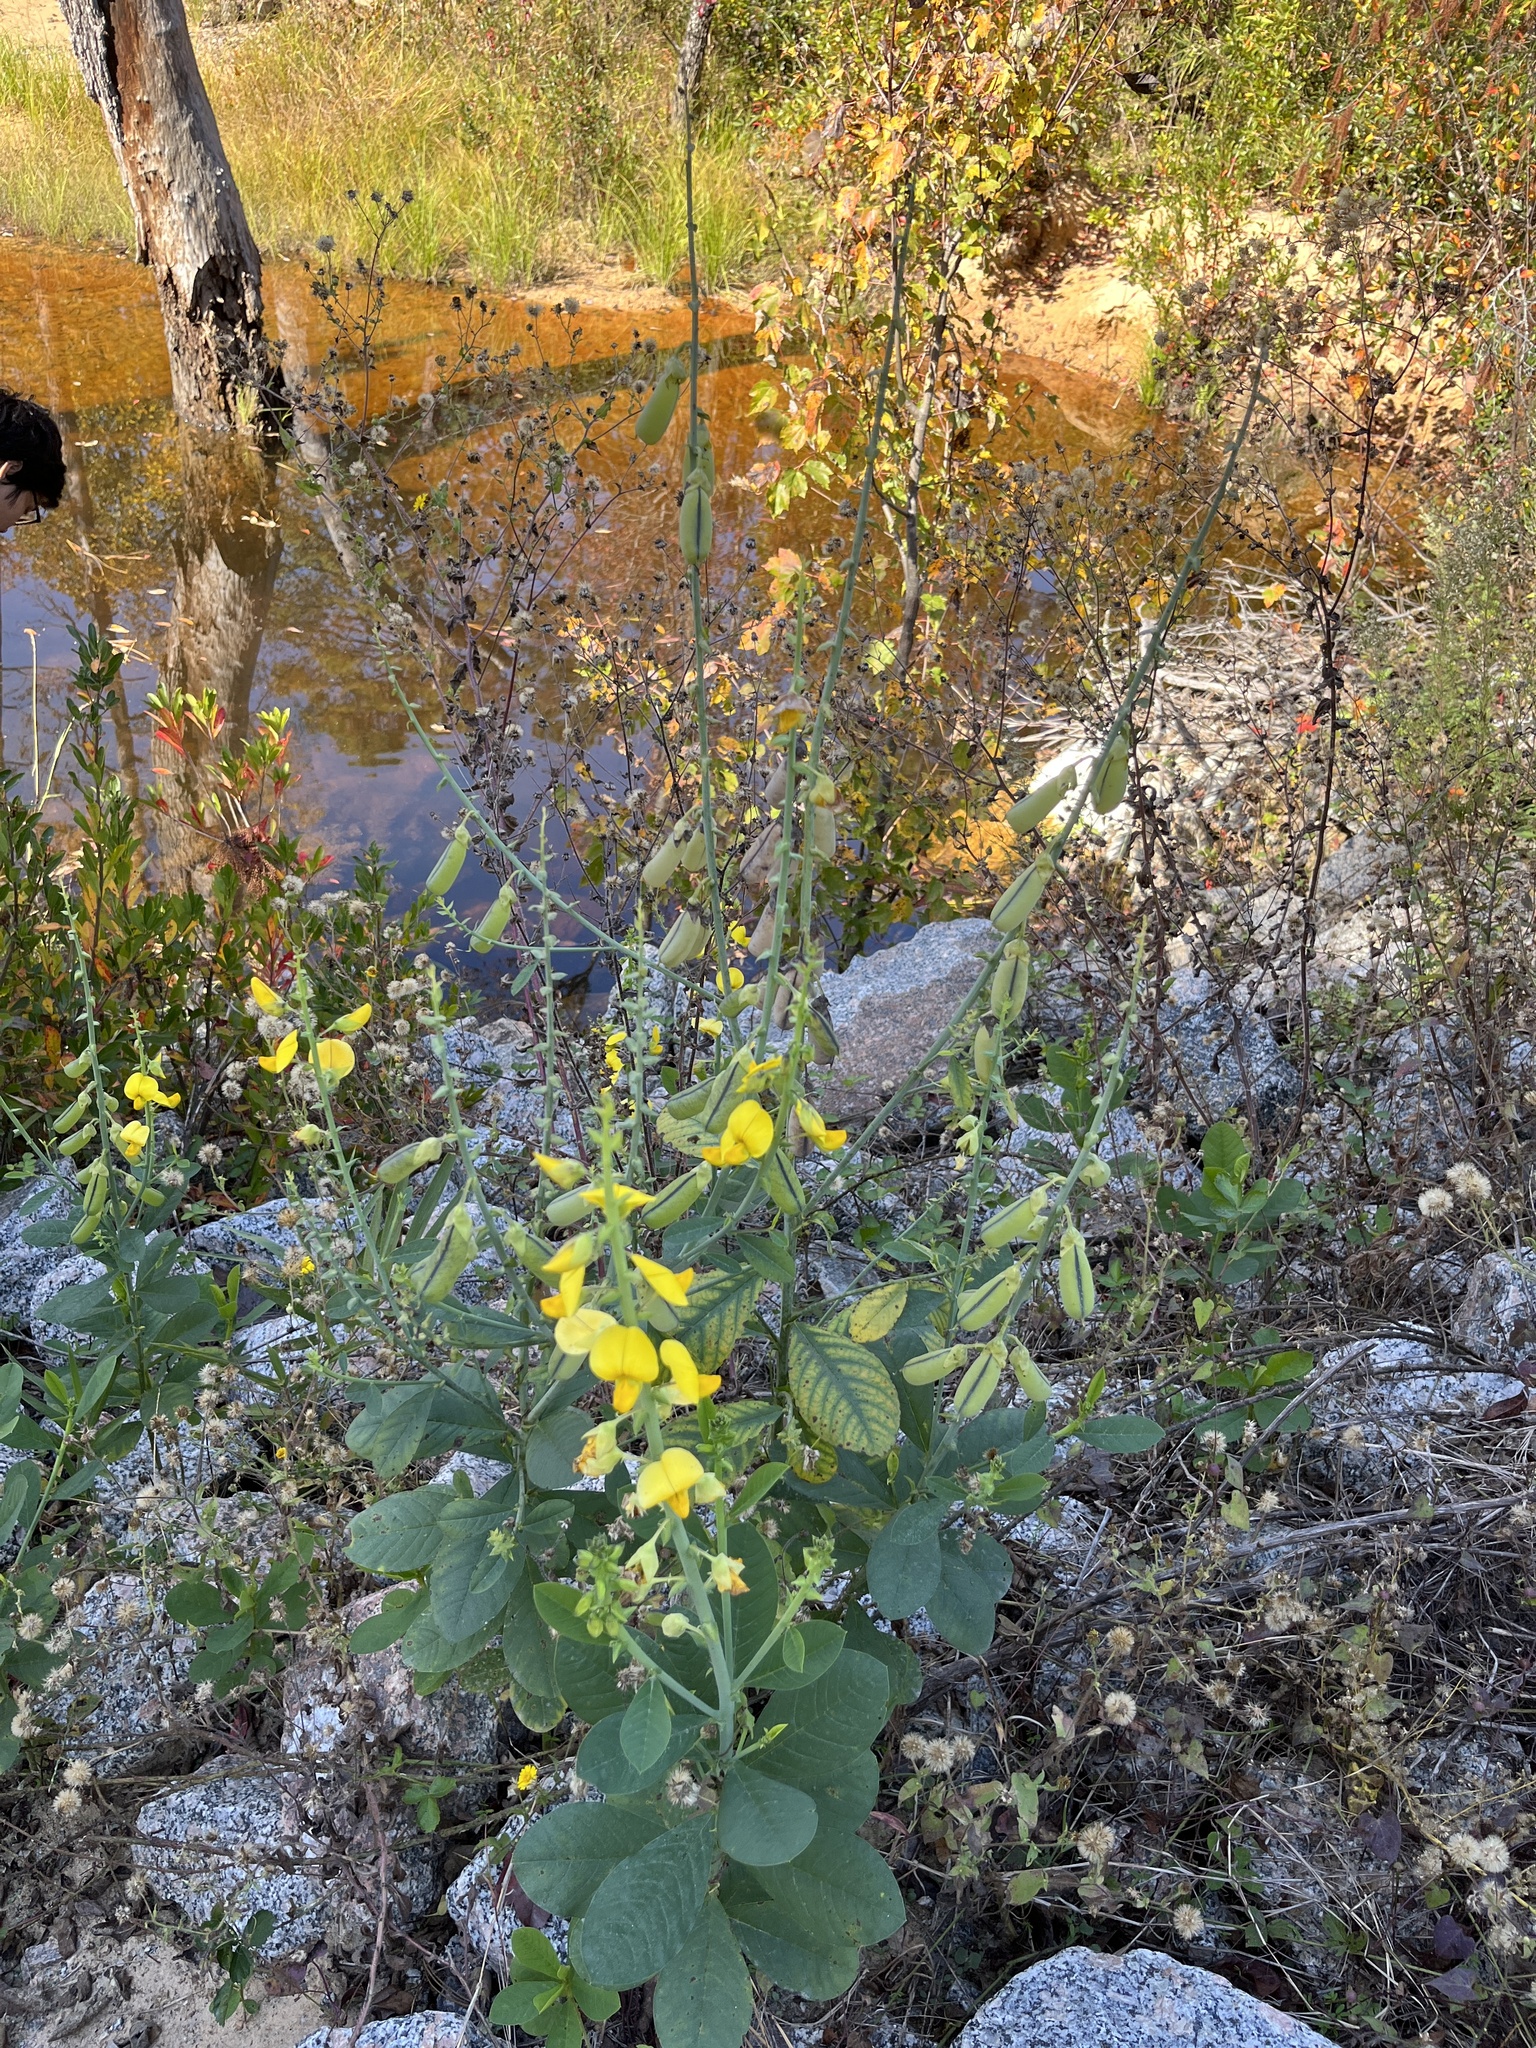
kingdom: Plantae
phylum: Tracheophyta
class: Magnoliopsida
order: Fabales
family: Fabaceae
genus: Crotalaria
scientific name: Crotalaria spectabilis
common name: Showy rattlebox
